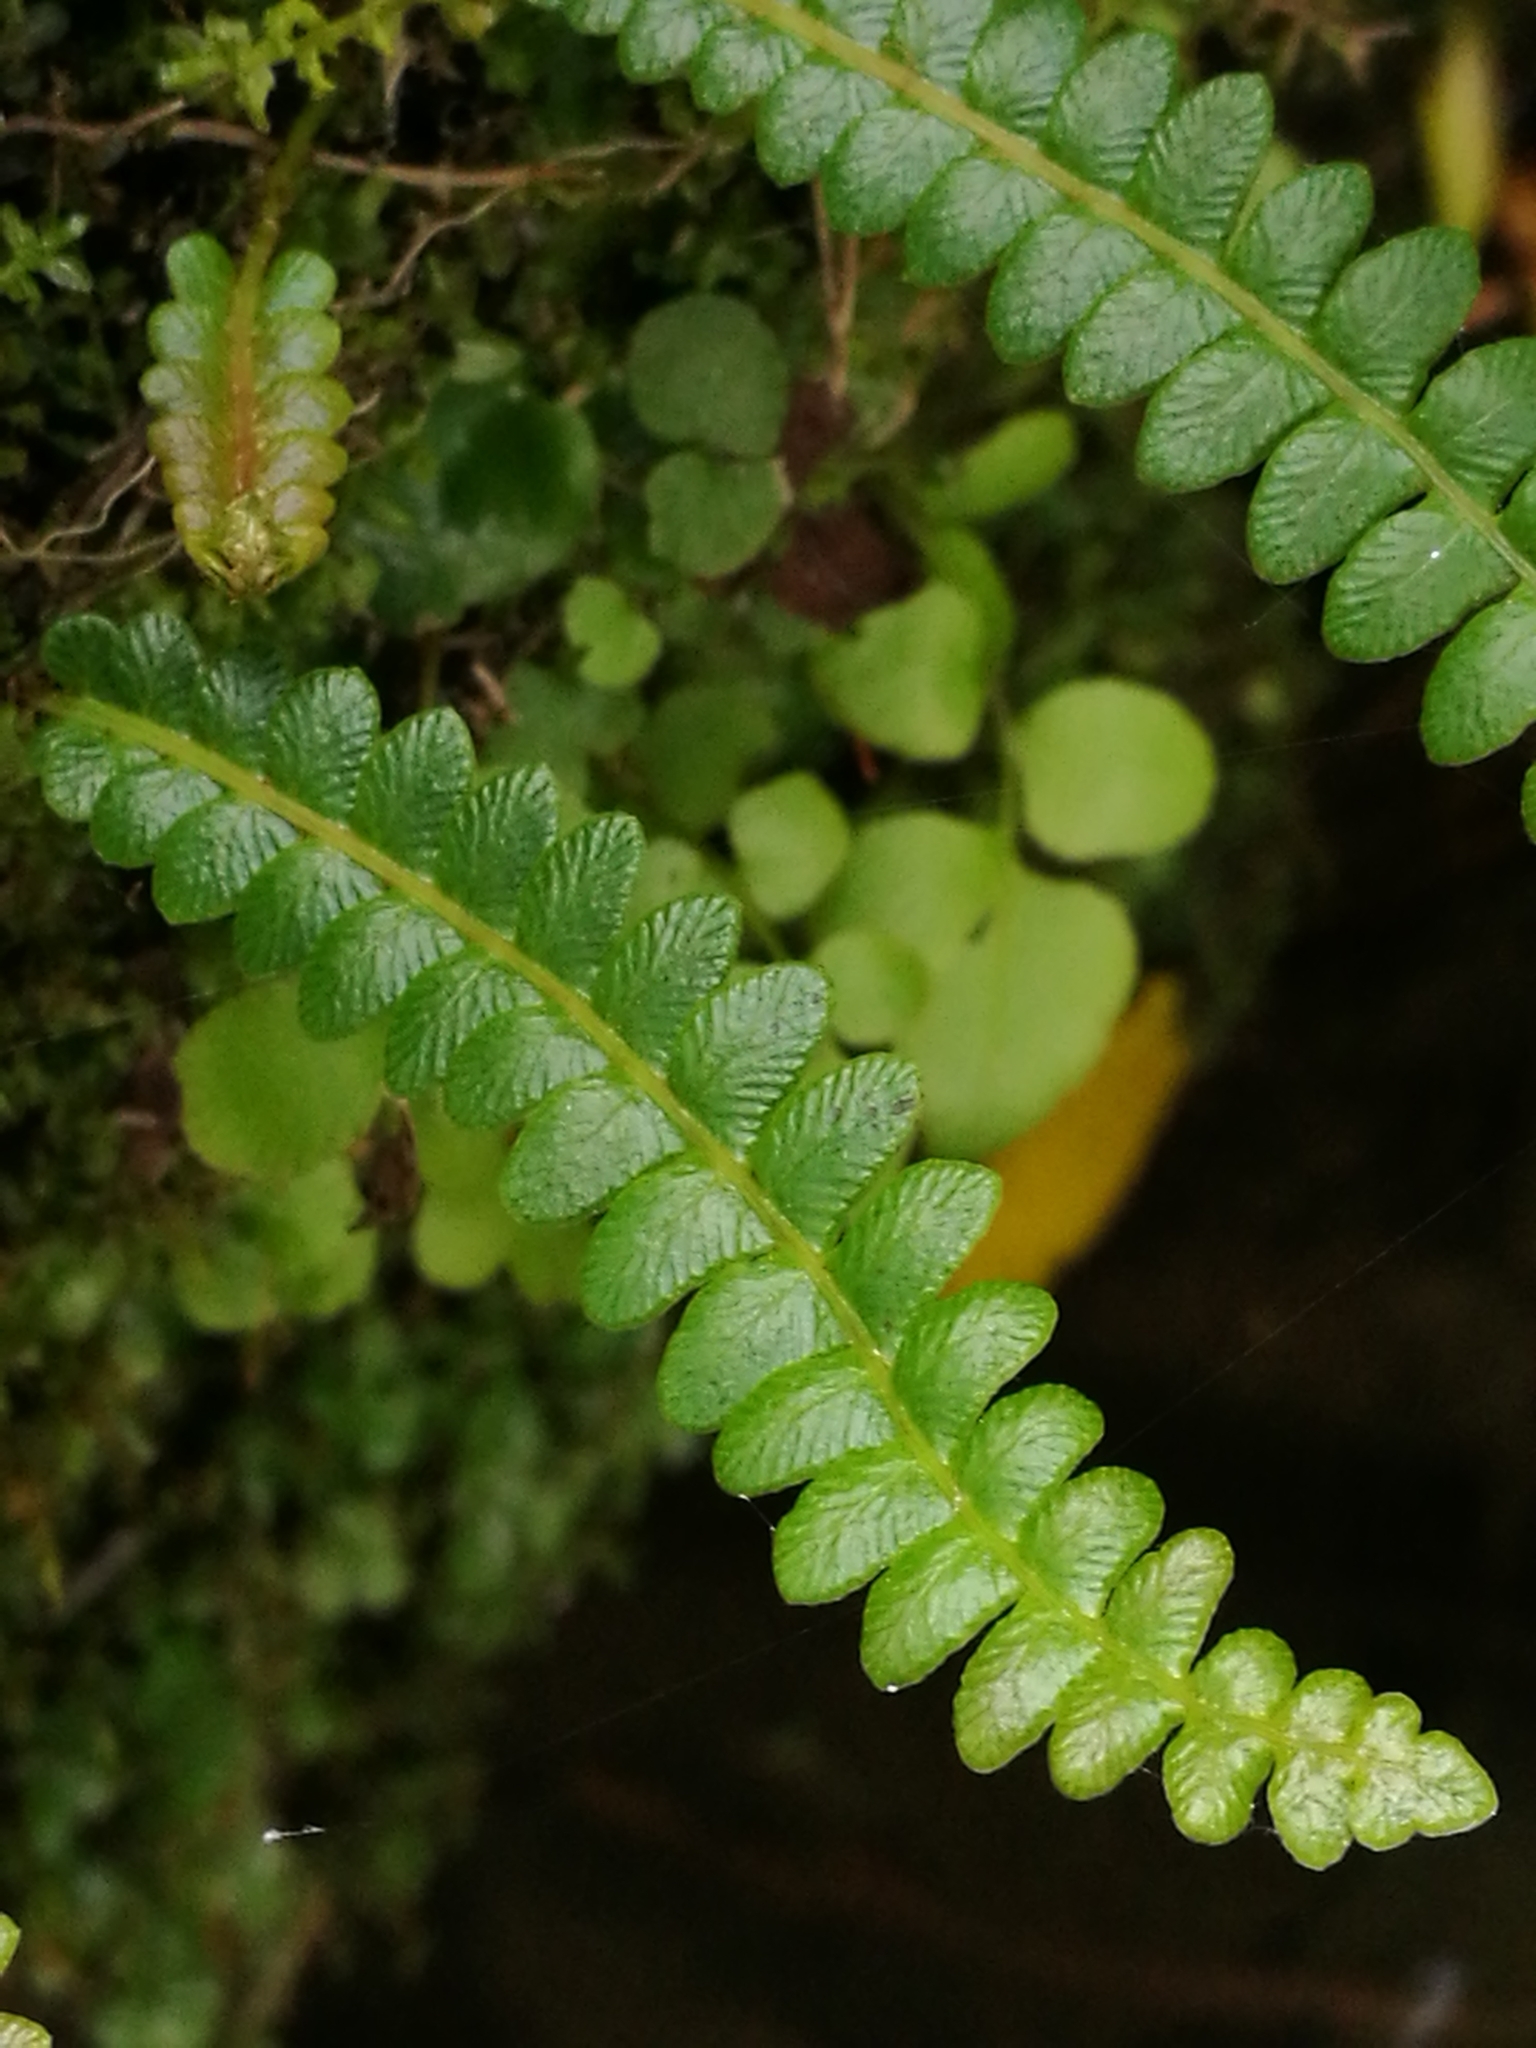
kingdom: Plantae
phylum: Tracheophyta
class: Polypodiopsida
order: Polypodiales
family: Blechnaceae
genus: Austroblechnum
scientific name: Austroblechnum penna-marina
